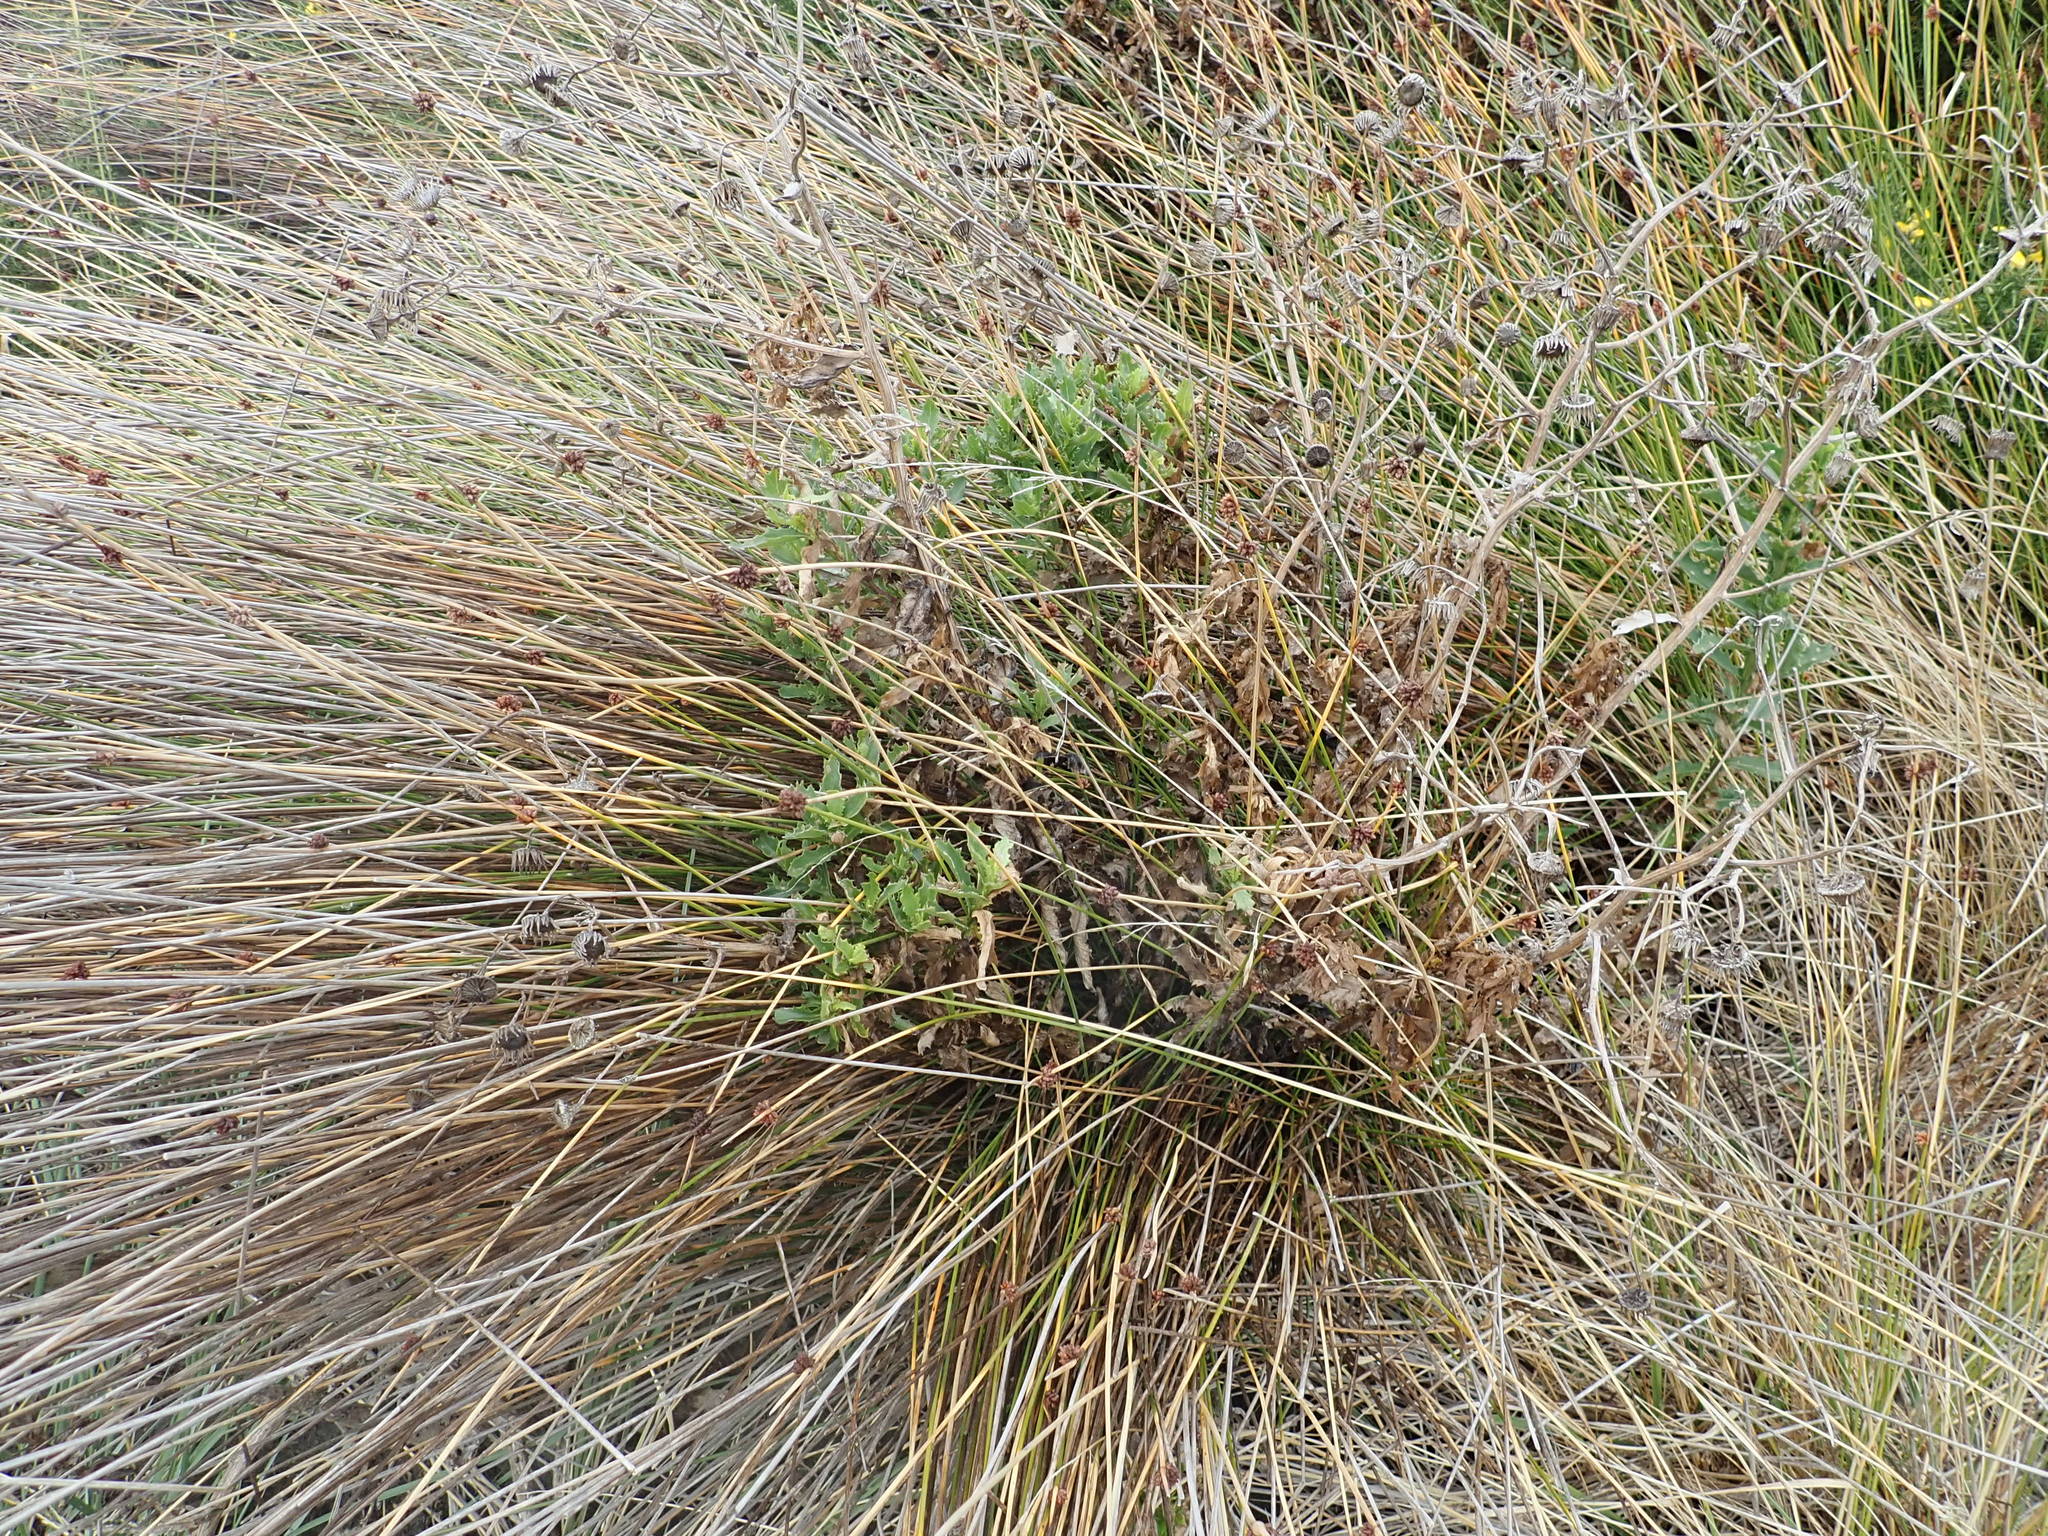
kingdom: Plantae
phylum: Tracheophyta
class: Magnoliopsida
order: Asterales
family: Asteraceae
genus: Senecio
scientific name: Senecio glastifolius
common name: Woad-leaved ragwort
